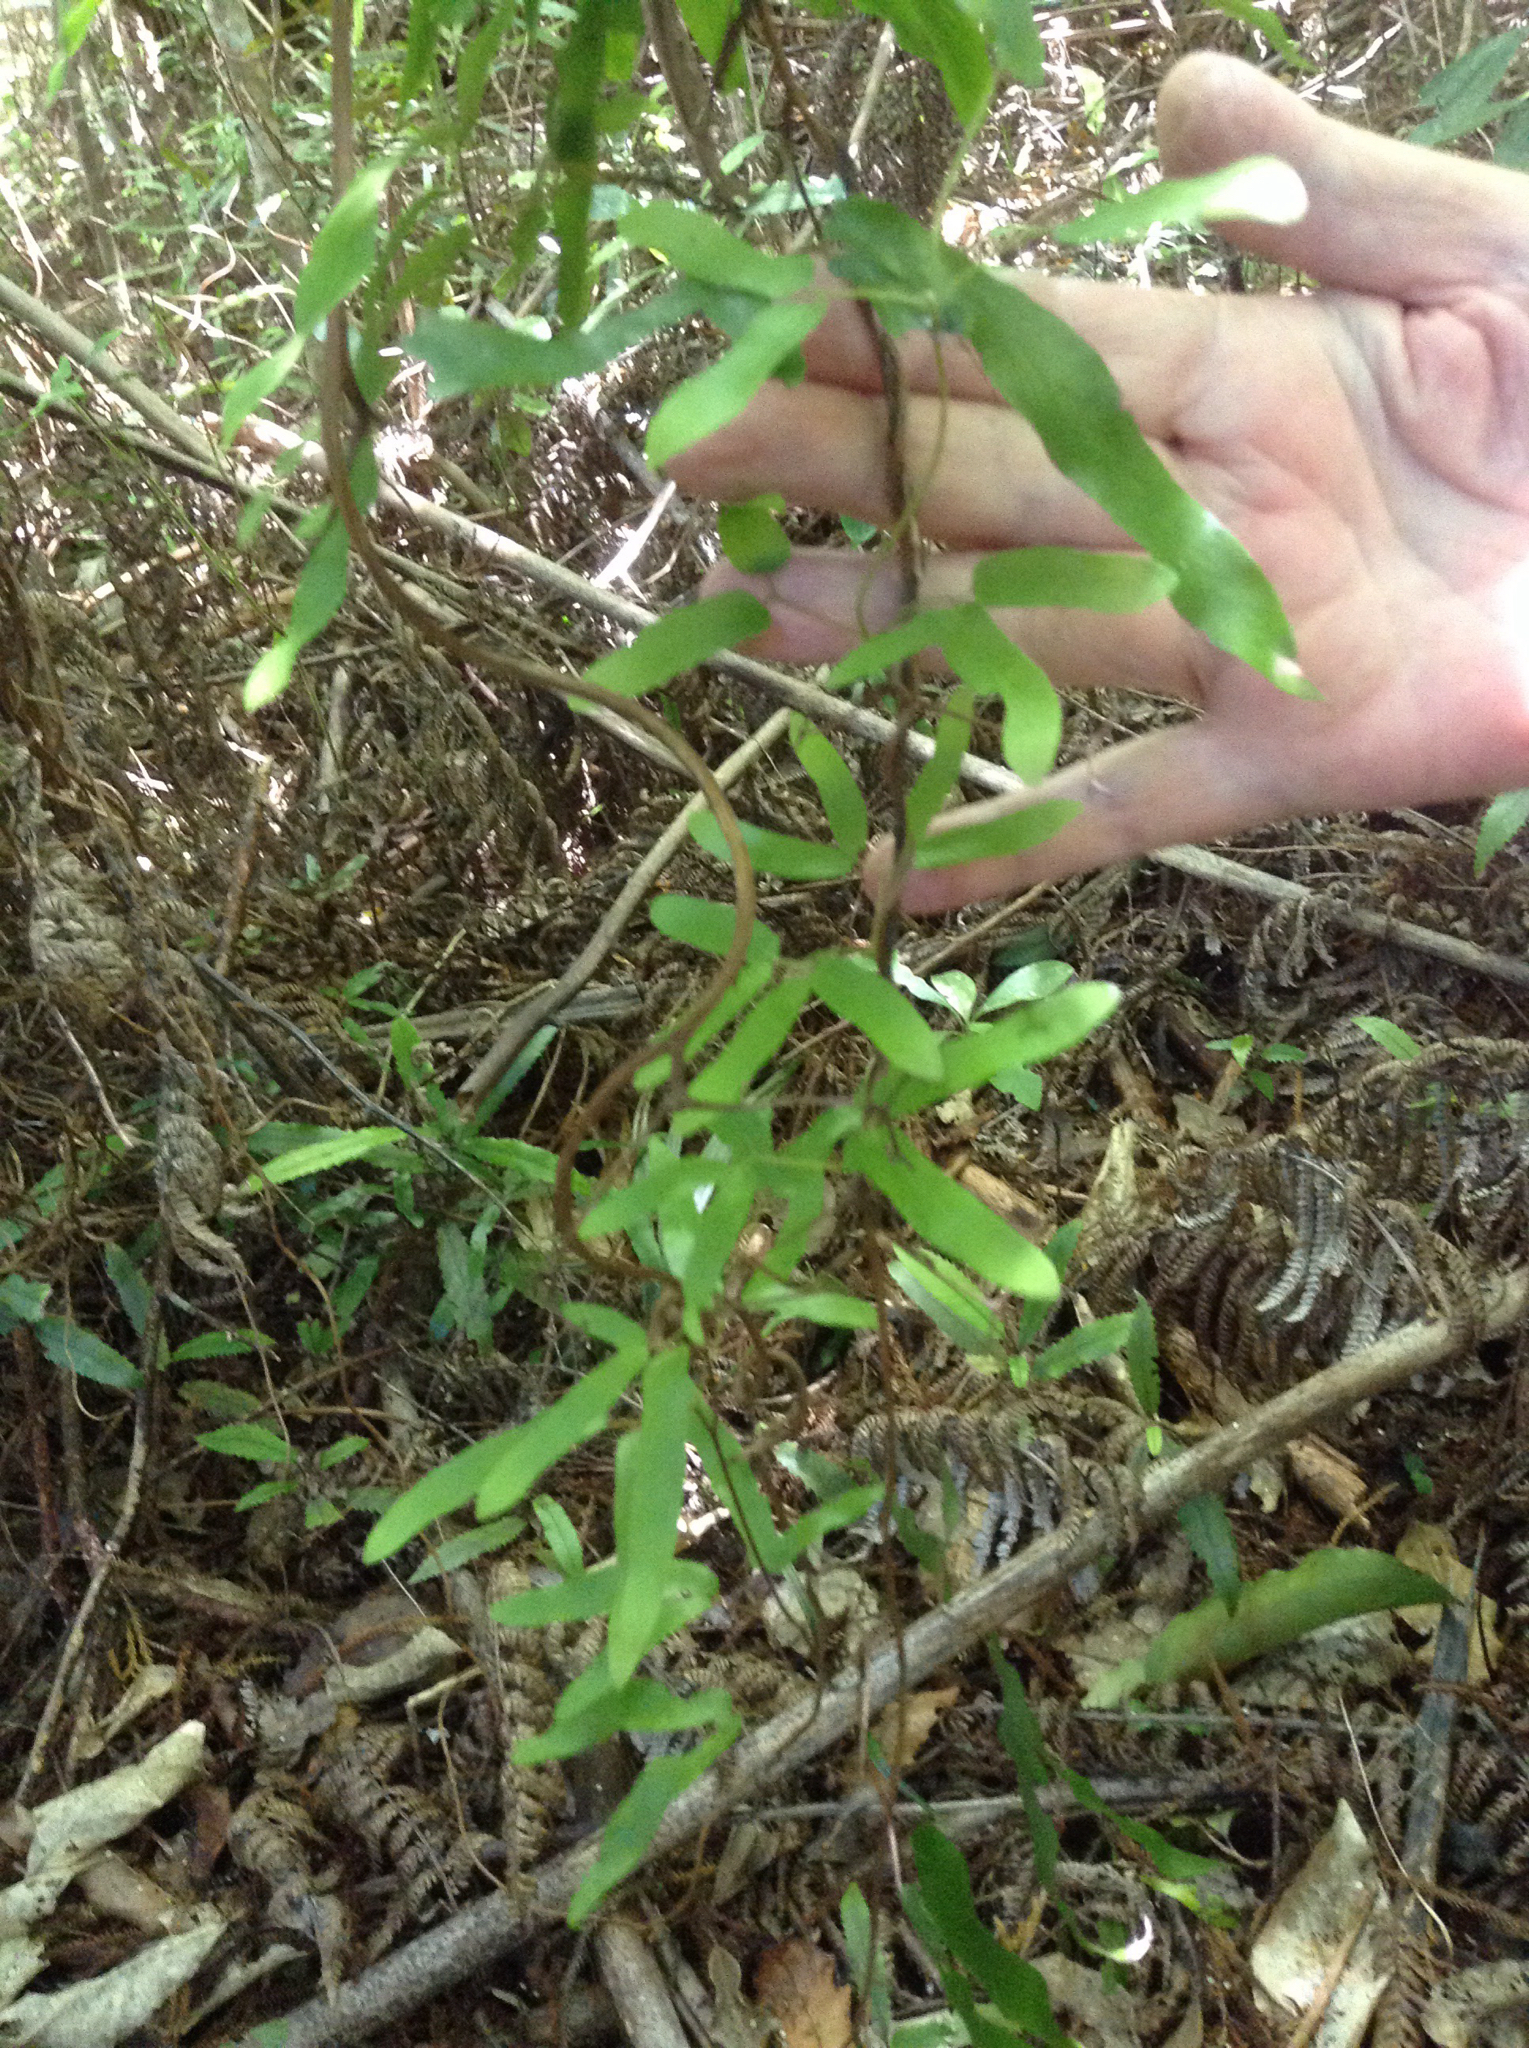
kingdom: Plantae
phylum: Tracheophyta
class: Polypodiopsida
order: Schizaeales
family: Lygodiaceae
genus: Lygodium
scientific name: Lygodium articulatum
